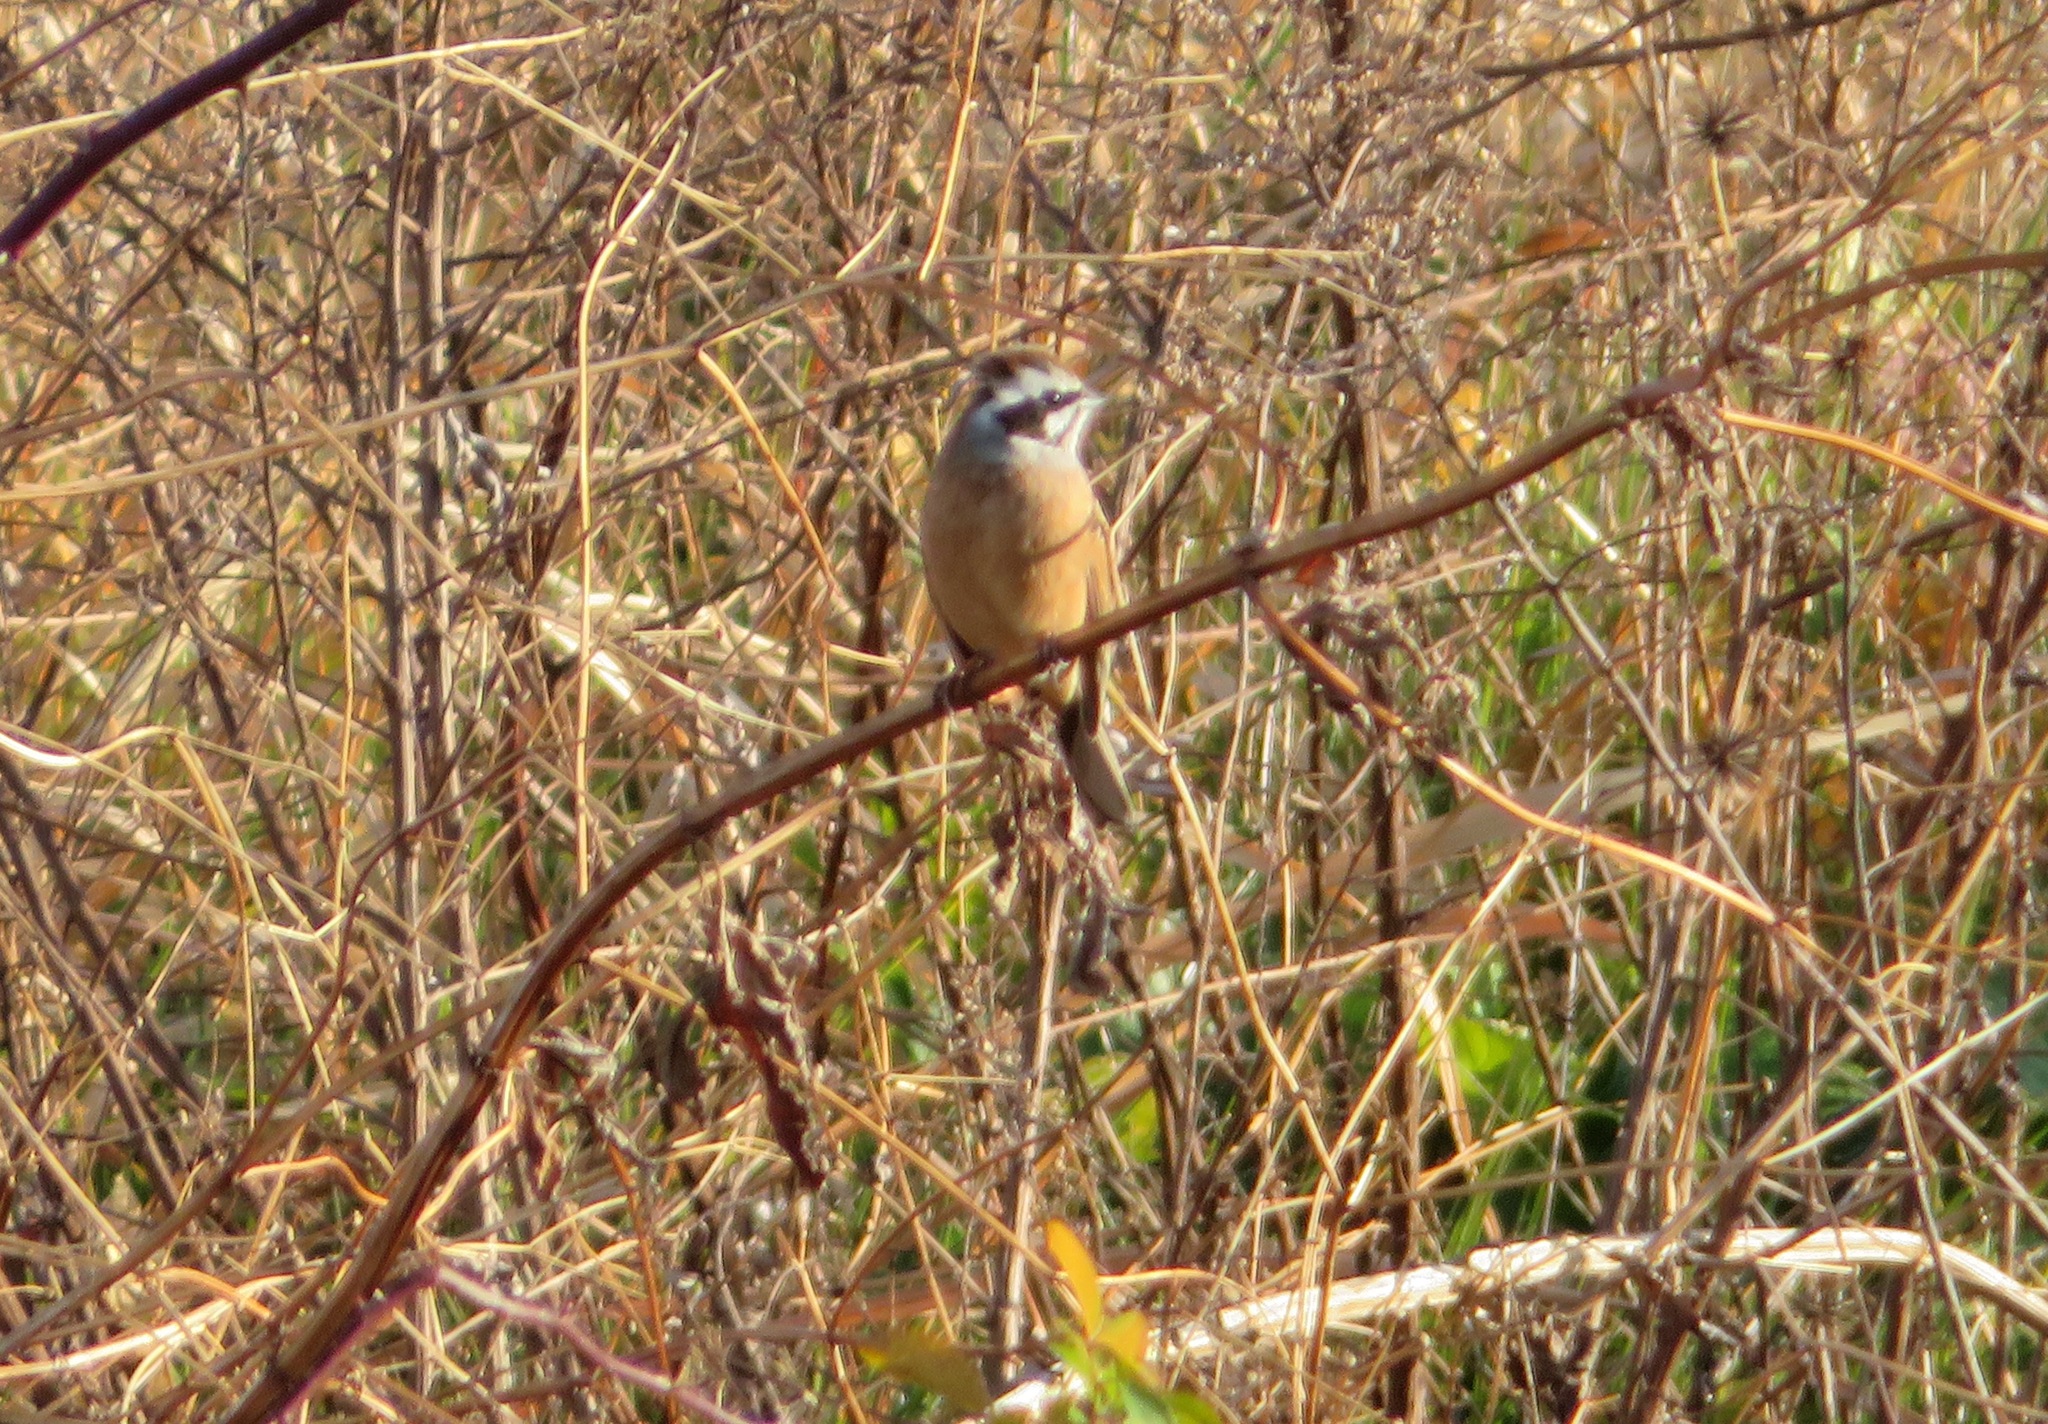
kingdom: Animalia
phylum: Chordata
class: Aves
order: Passeriformes
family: Emberizidae
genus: Emberiza
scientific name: Emberiza cioides
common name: Meadow bunting
